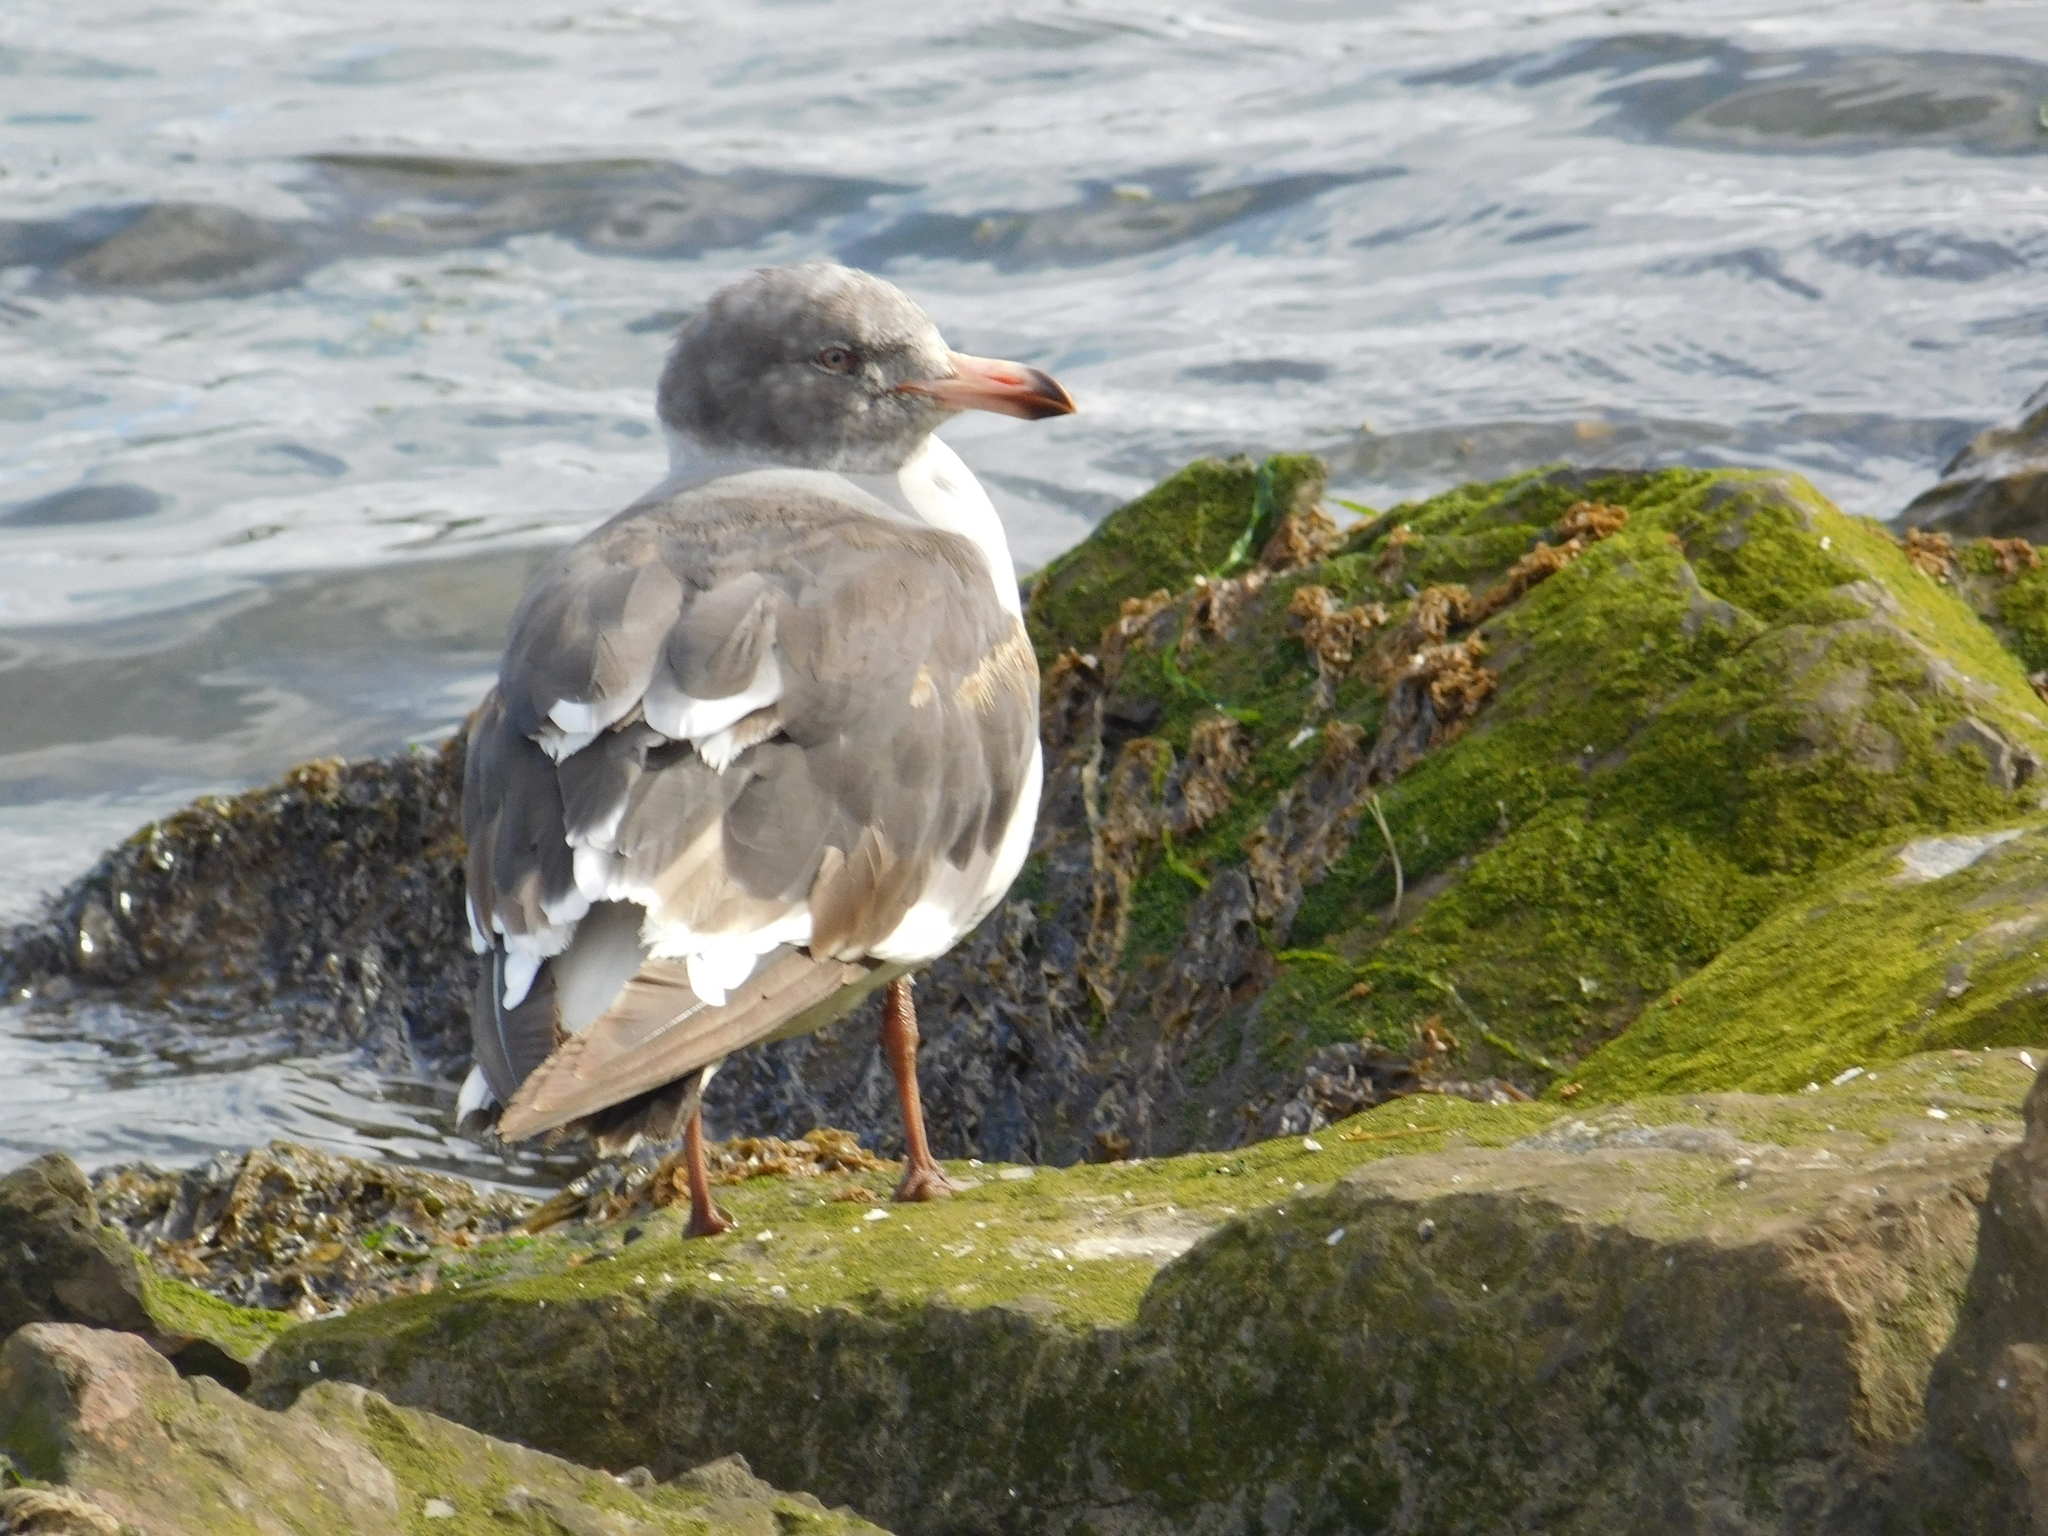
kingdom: Animalia
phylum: Chordata
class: Aves
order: Charadriiformes
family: Laridae
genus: Leucophaeus
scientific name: Leucophaeus scoresbii
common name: Dolphin gull
